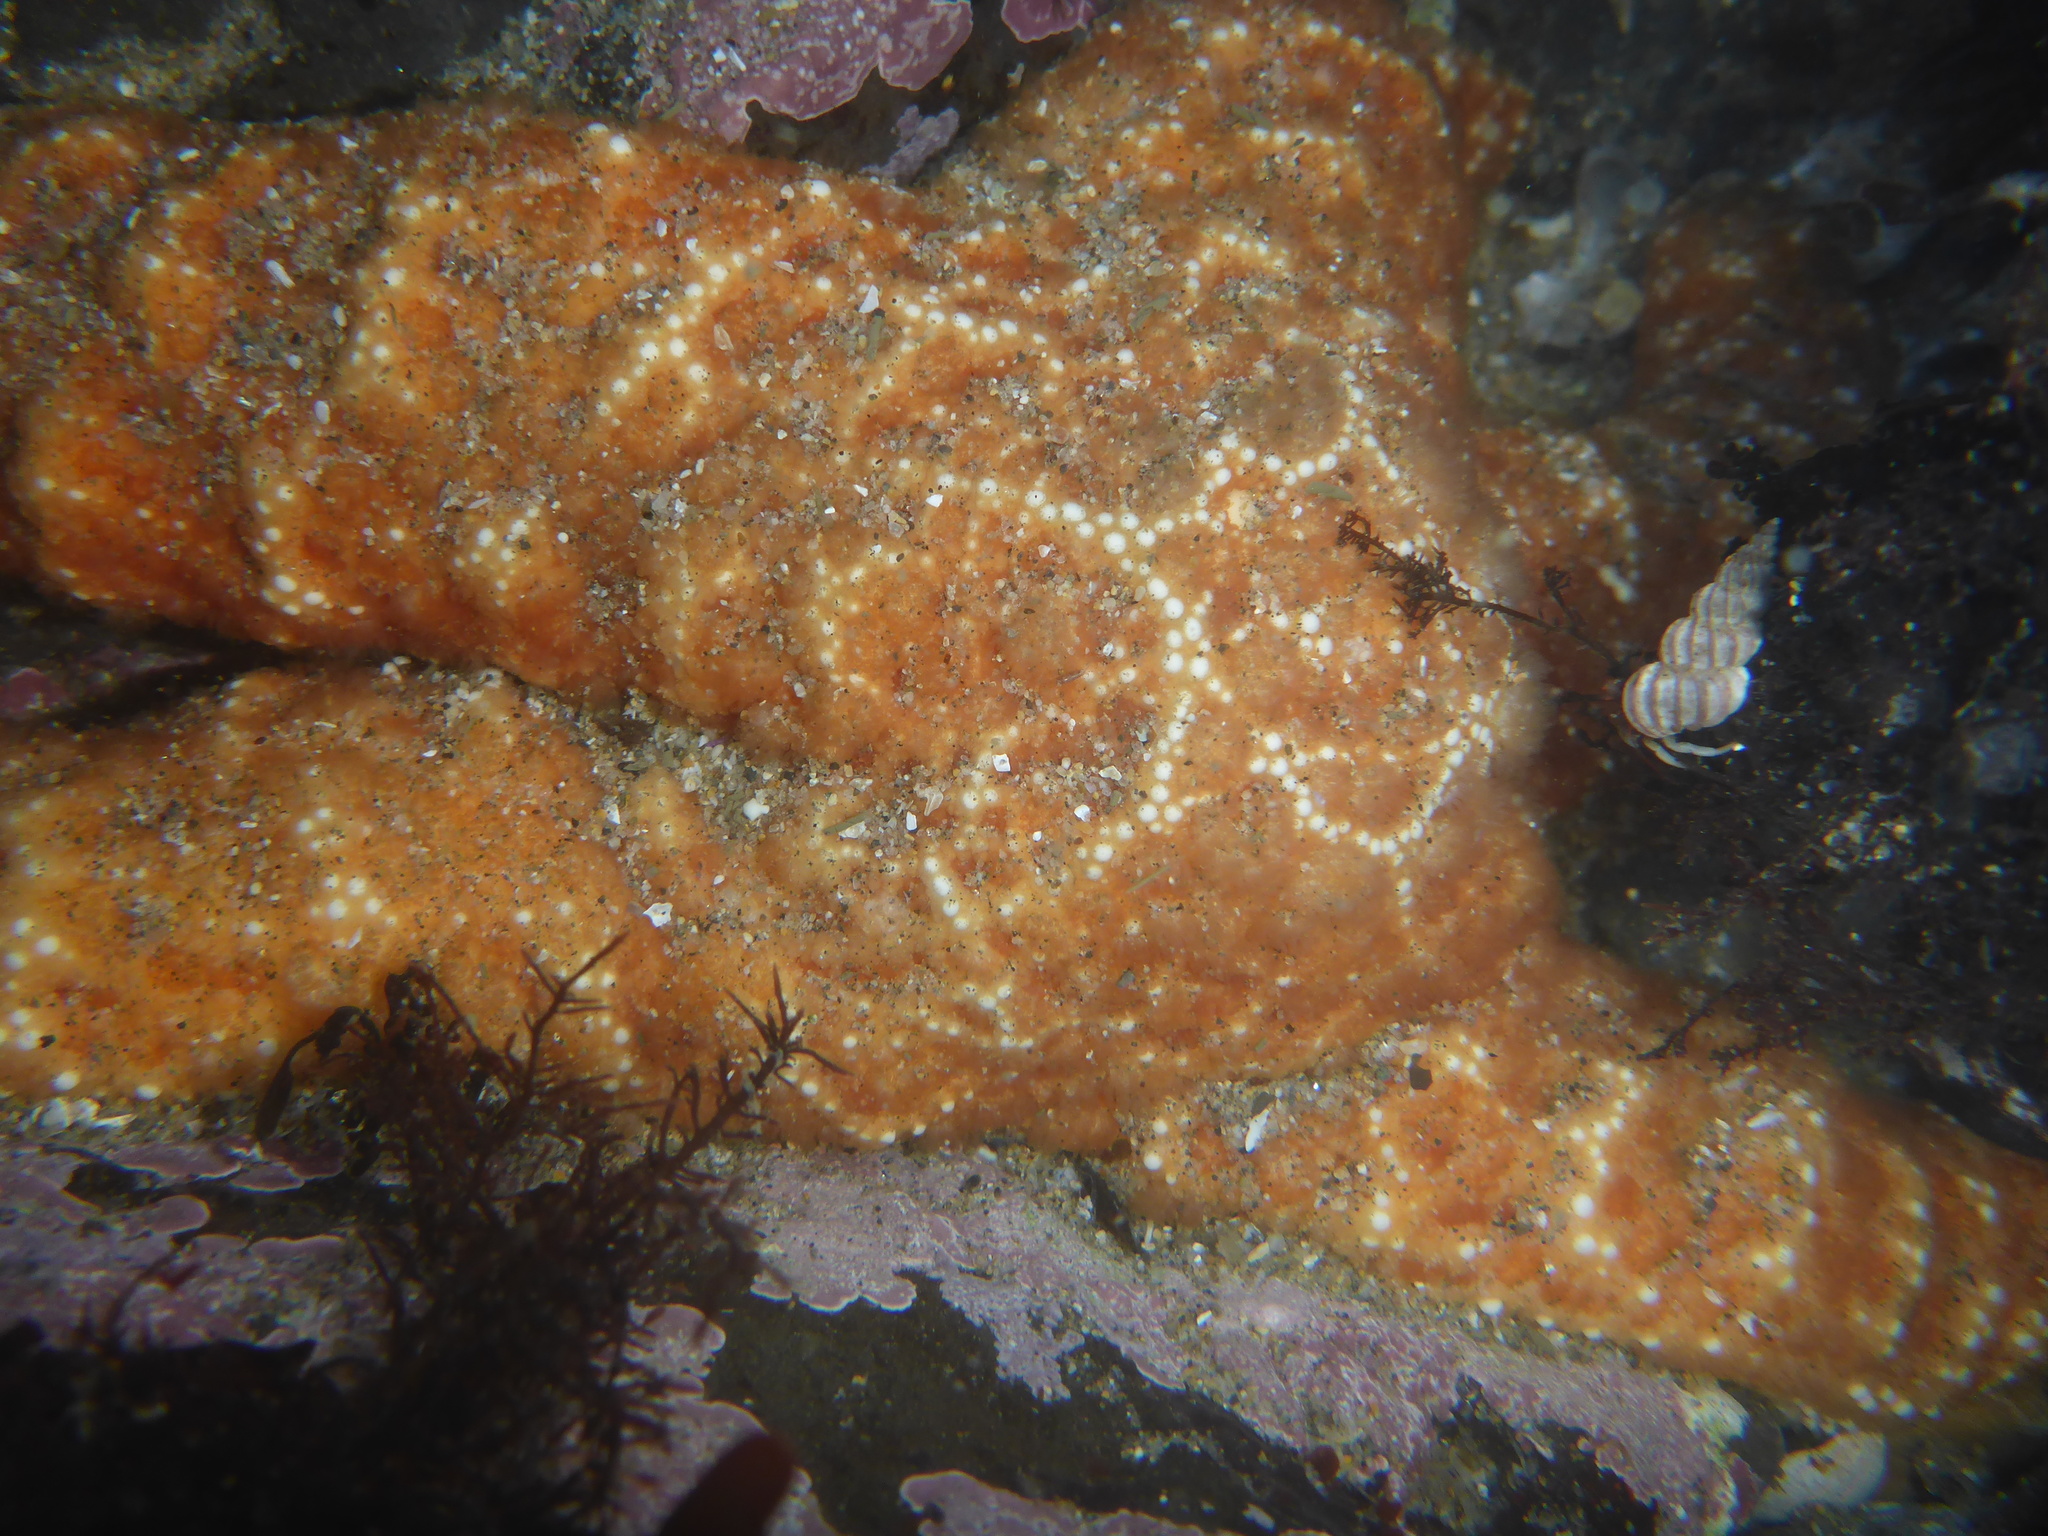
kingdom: Animalia
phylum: Echinodermata
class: Asteroidea
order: Forcipulatida
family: Asteriidae
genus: Pisaster
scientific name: Pisaster ochraceus
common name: Ochre stars
